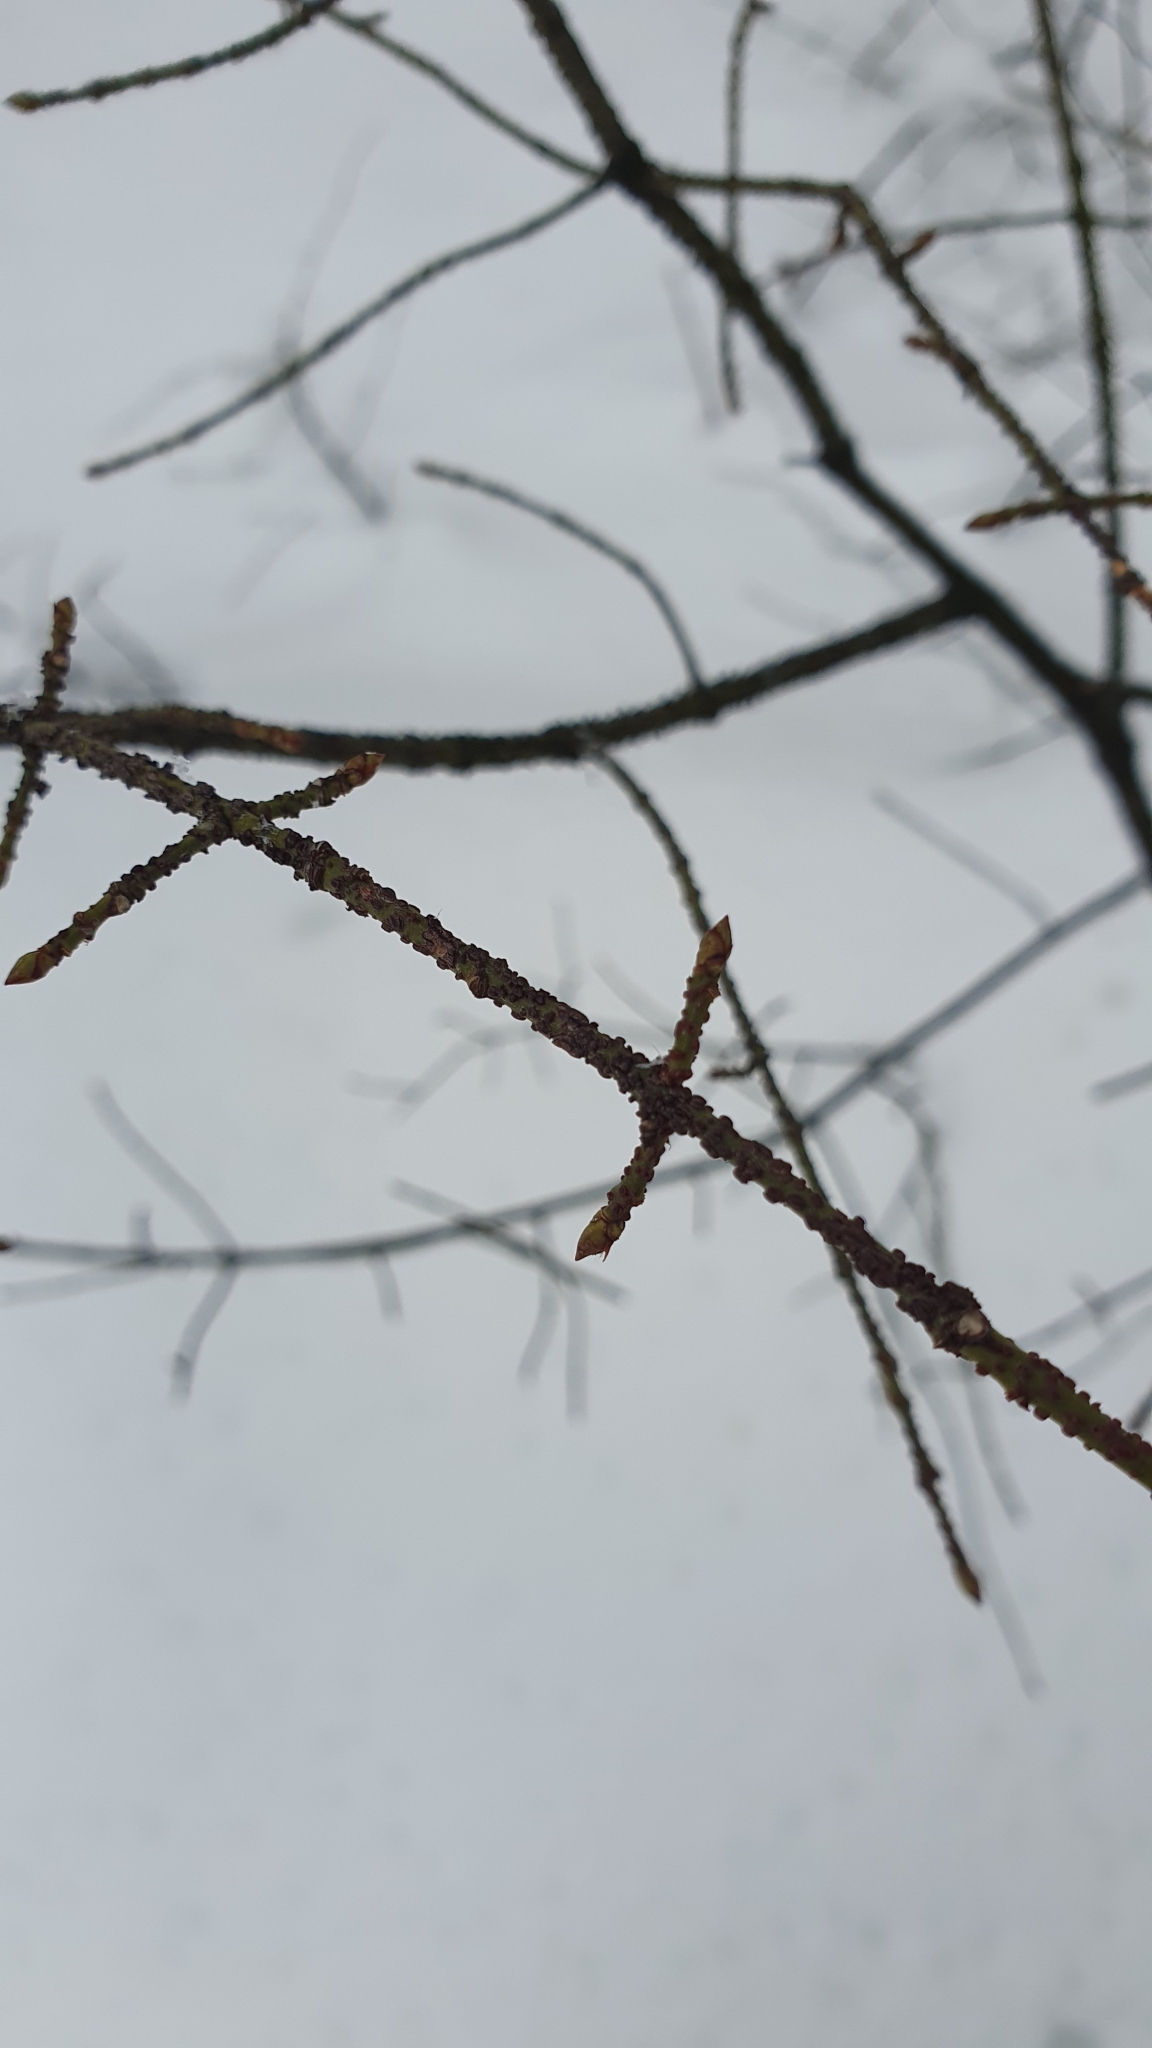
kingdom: Plantae
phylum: Tracheophyta
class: Magnoliopsida
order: Celastrales
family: Celastraceae
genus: Euonymus
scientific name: Euonymus verrucosus
